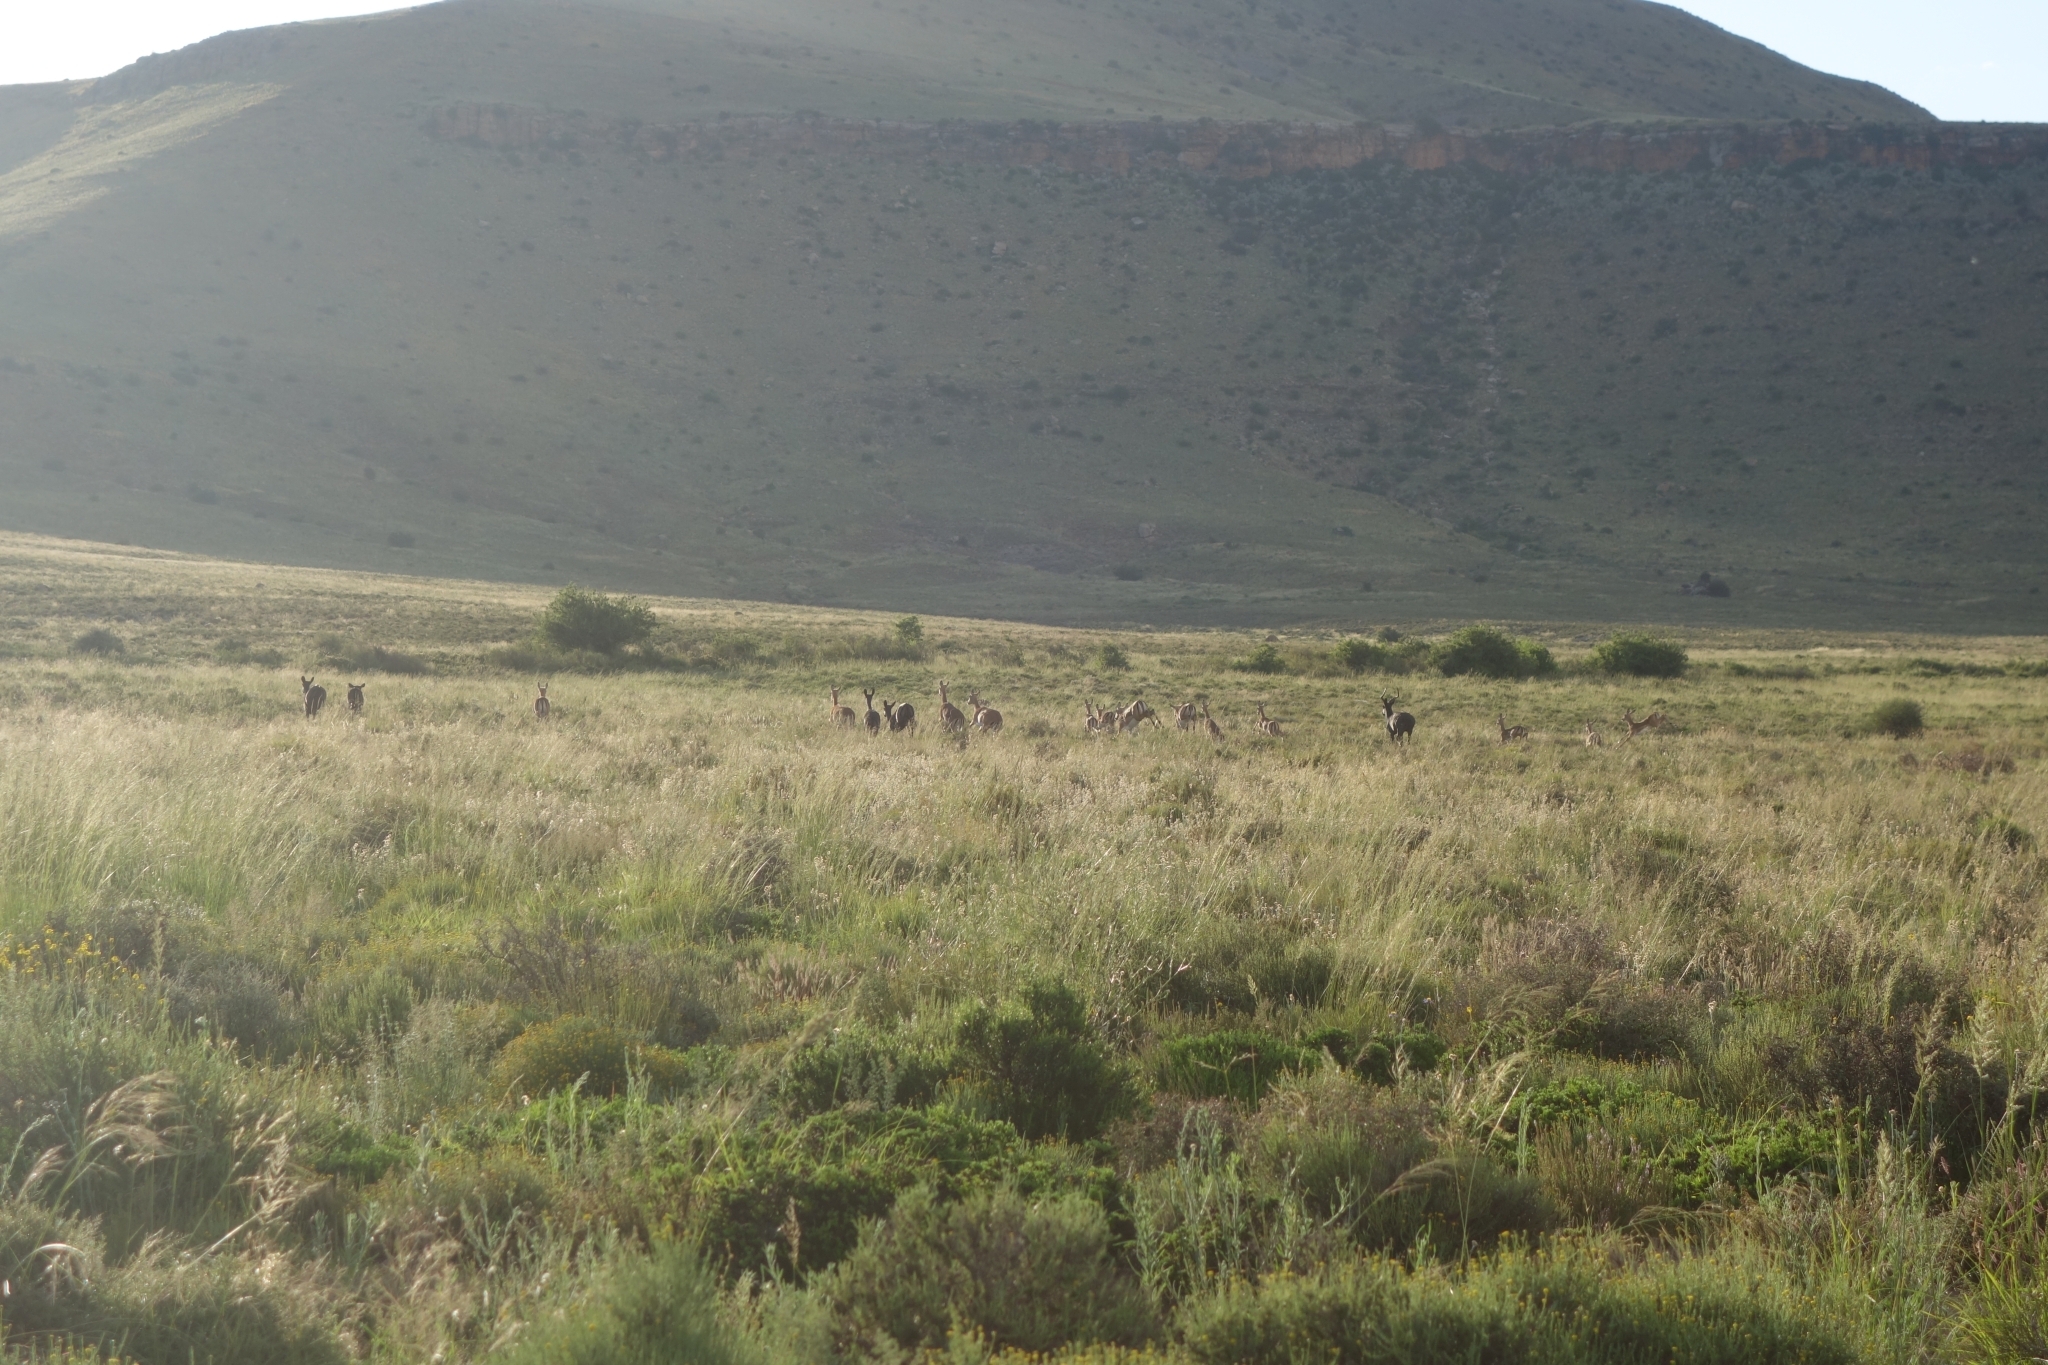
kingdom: Animalia
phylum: Chordata
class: Mammalia
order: Artiodactyla
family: Bovidae
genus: Aepyceros
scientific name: Aepyceros melampus
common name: Impala
